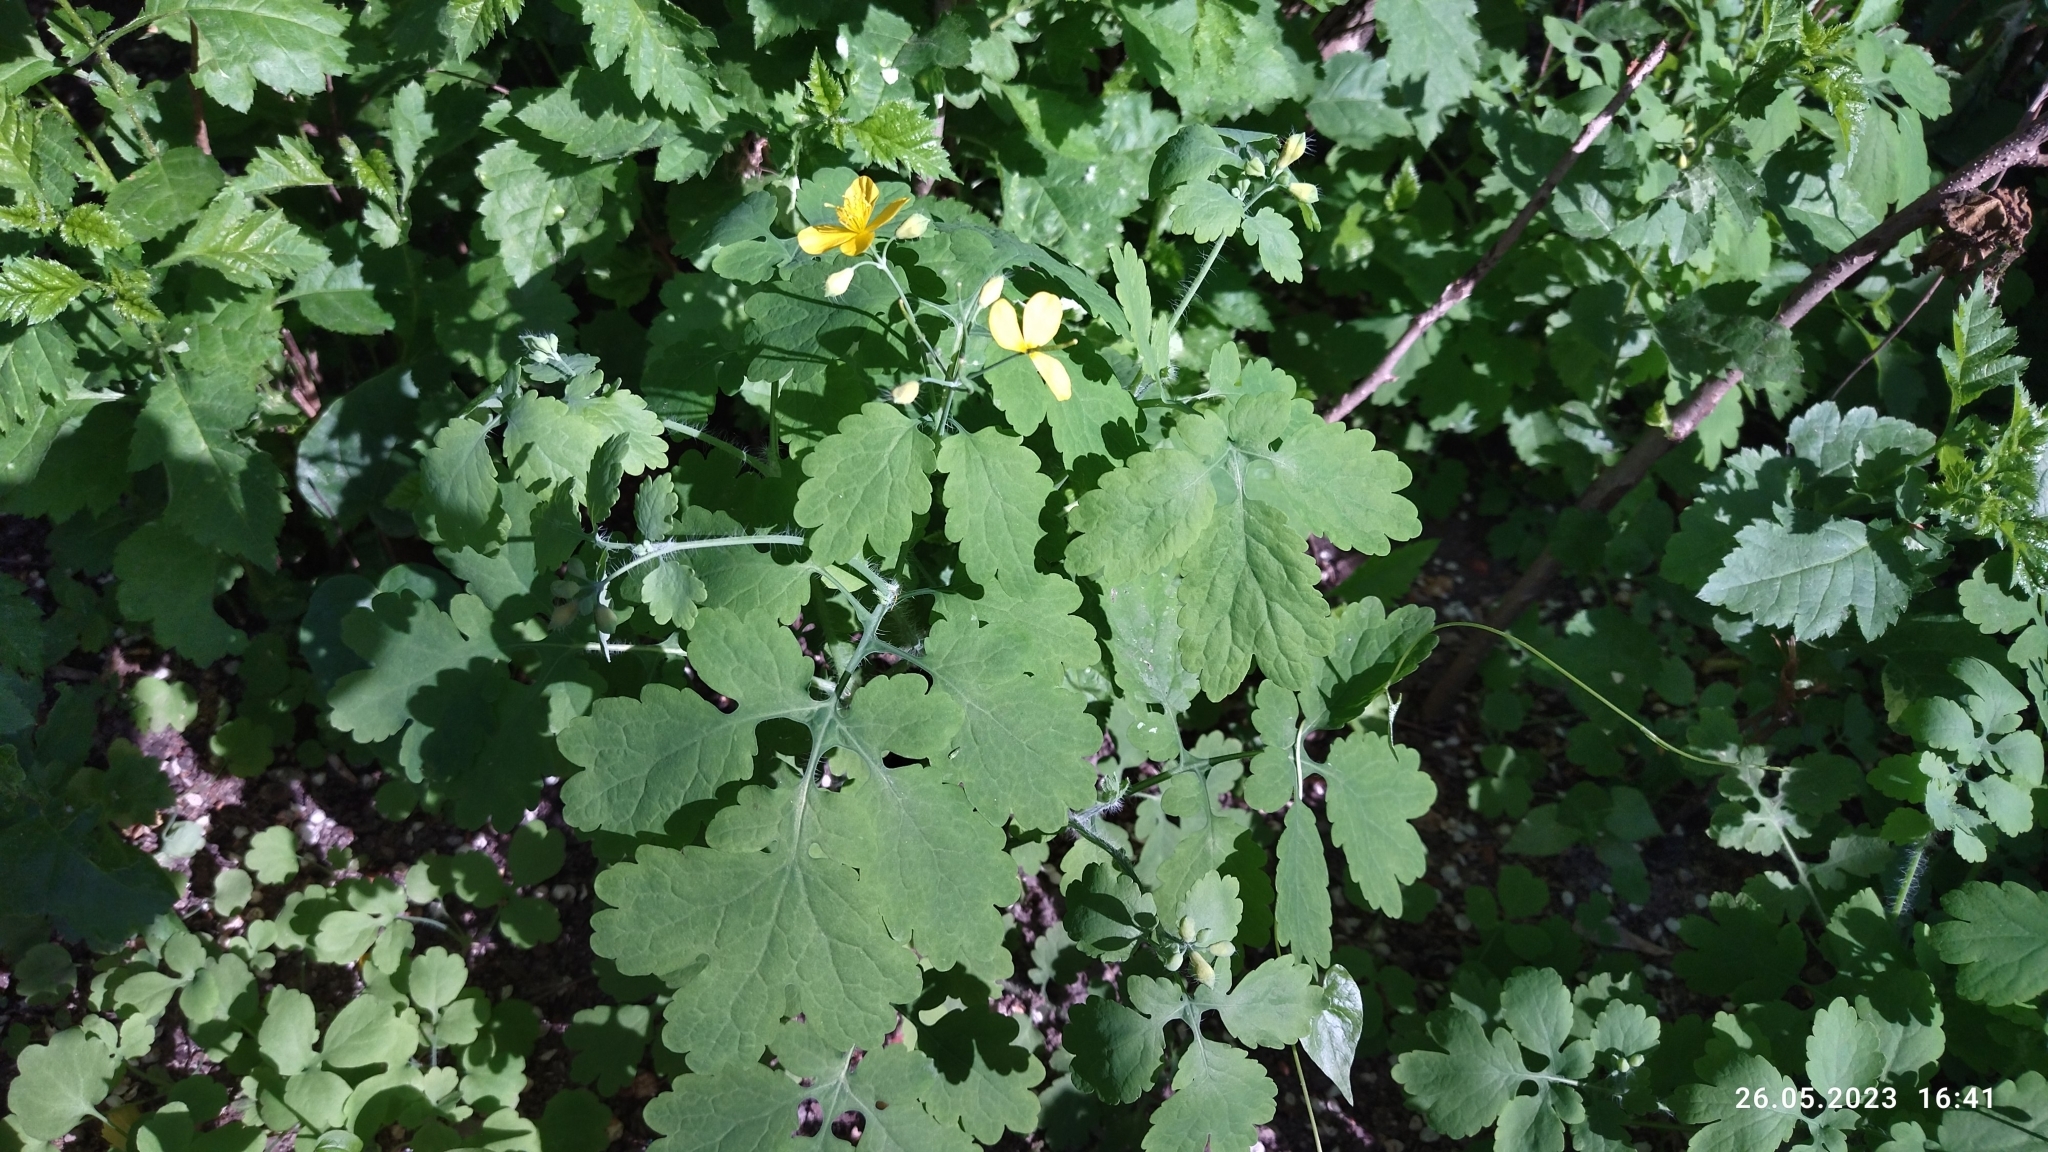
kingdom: Plantae
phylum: Tracheophyta
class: Magnoliopsida
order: Ranunculales
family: Papaveraceae
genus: Chelidonium
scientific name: Chelidonium majus
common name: Greater celandine
